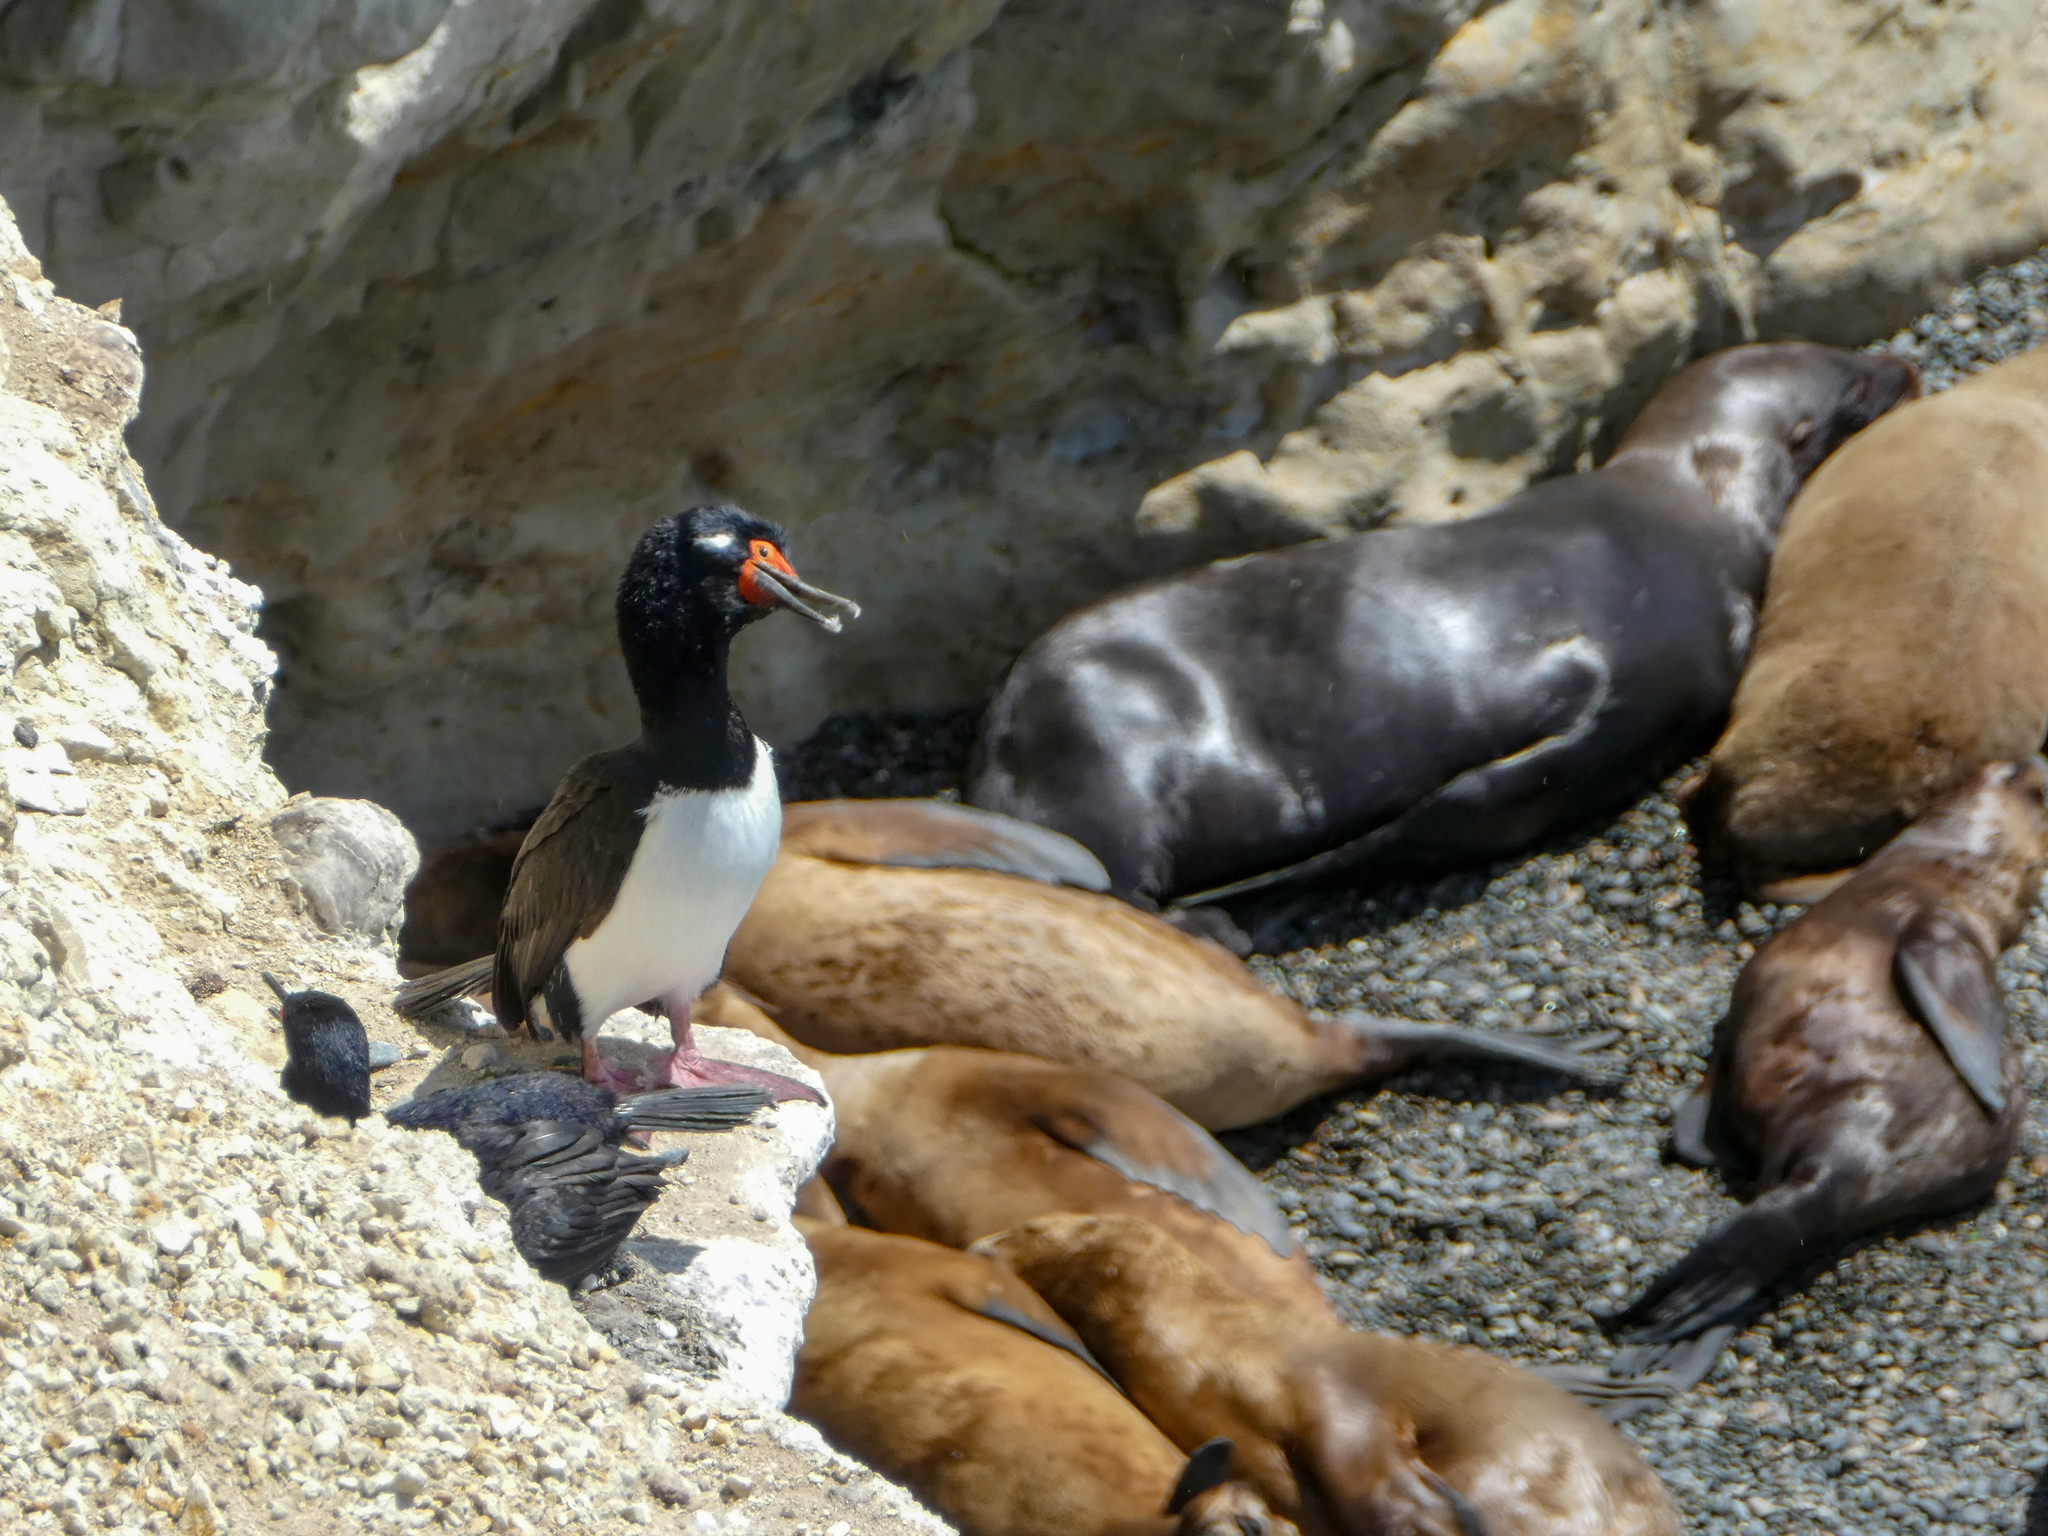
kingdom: Animalia
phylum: Chordata
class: Aves
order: Suliformes
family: Phalacrocoracidae
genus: Phalacrocorax
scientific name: Phalacrocorax magellanicus
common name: Rock shag
